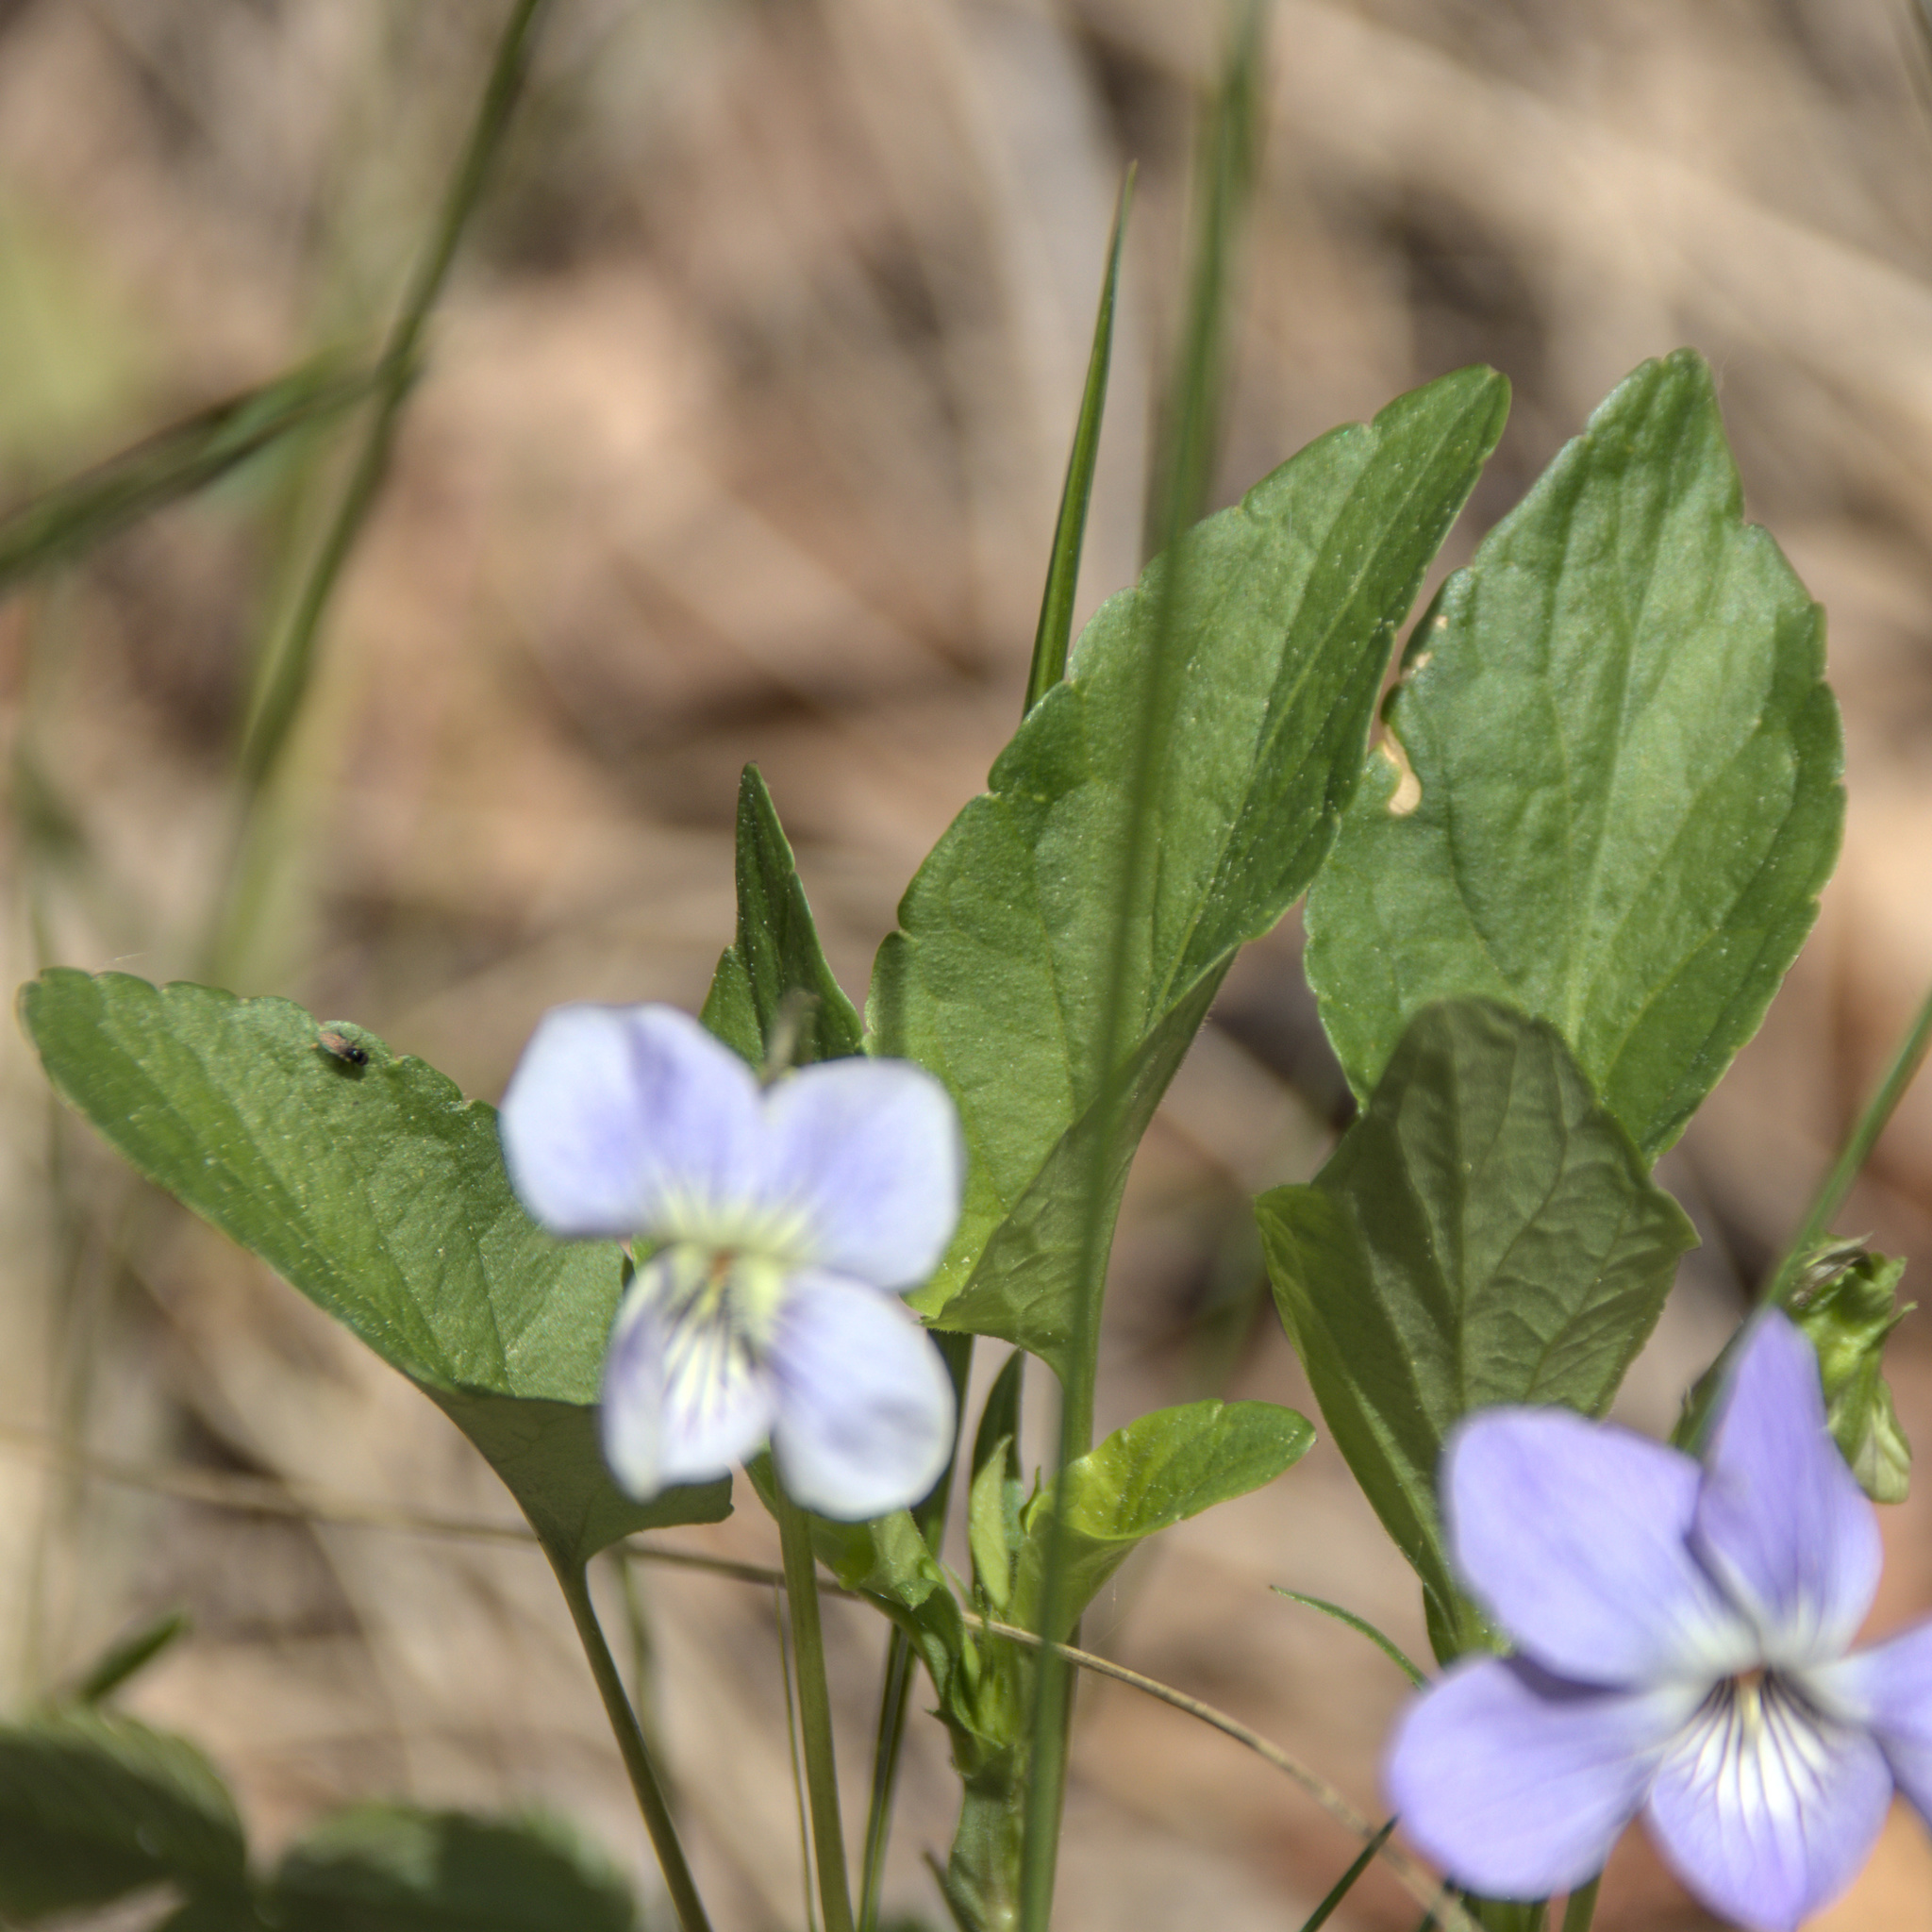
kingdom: Plantae
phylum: Tracheophyta
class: Magnoliopsida
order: Malpighiales
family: Violaceae
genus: Viola
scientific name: Viola canina
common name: Heath dog-violet
